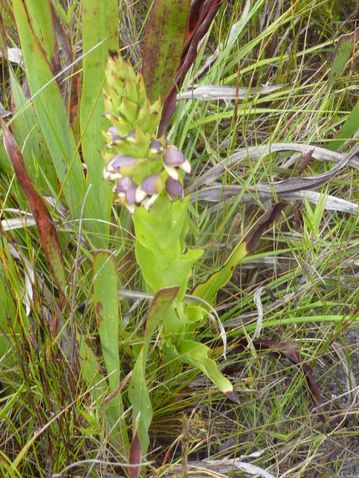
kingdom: Plantae
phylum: Tracheophyta
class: Liliopsida
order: Asparagales
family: Orchidaceae
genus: Disa
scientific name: Disa cornuta
